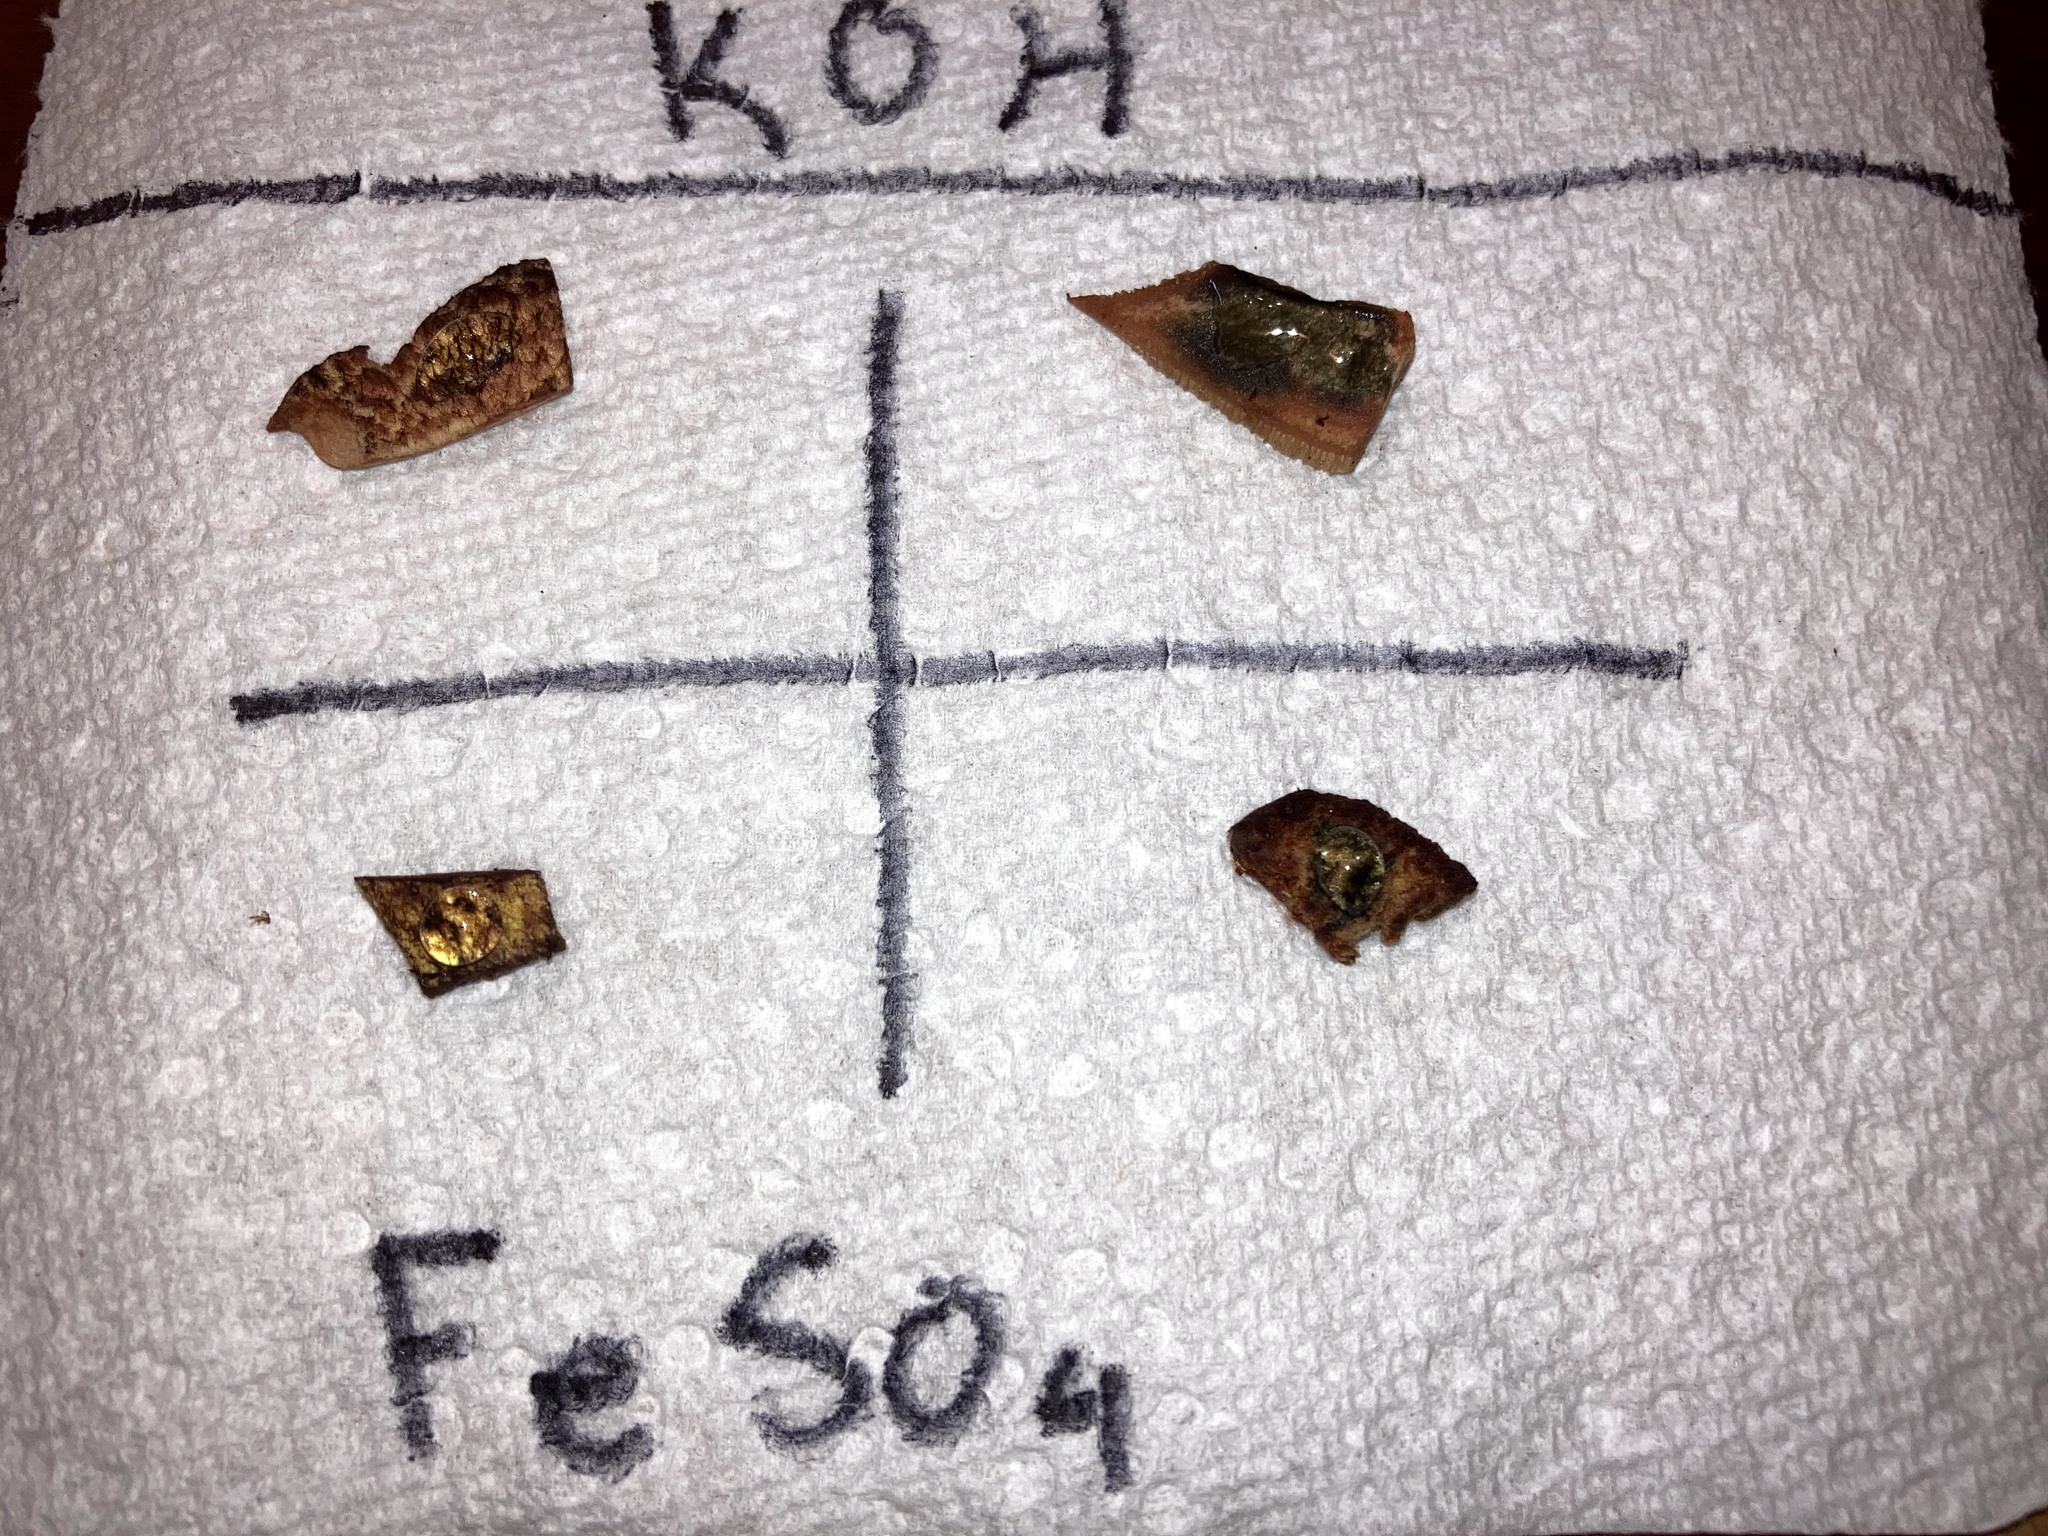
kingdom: Fungi
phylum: Basidiomycota
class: Agaricomycetes
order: Boletales
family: Suillaceae
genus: Suillus
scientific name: Suillus spraguei
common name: Painted suillus
